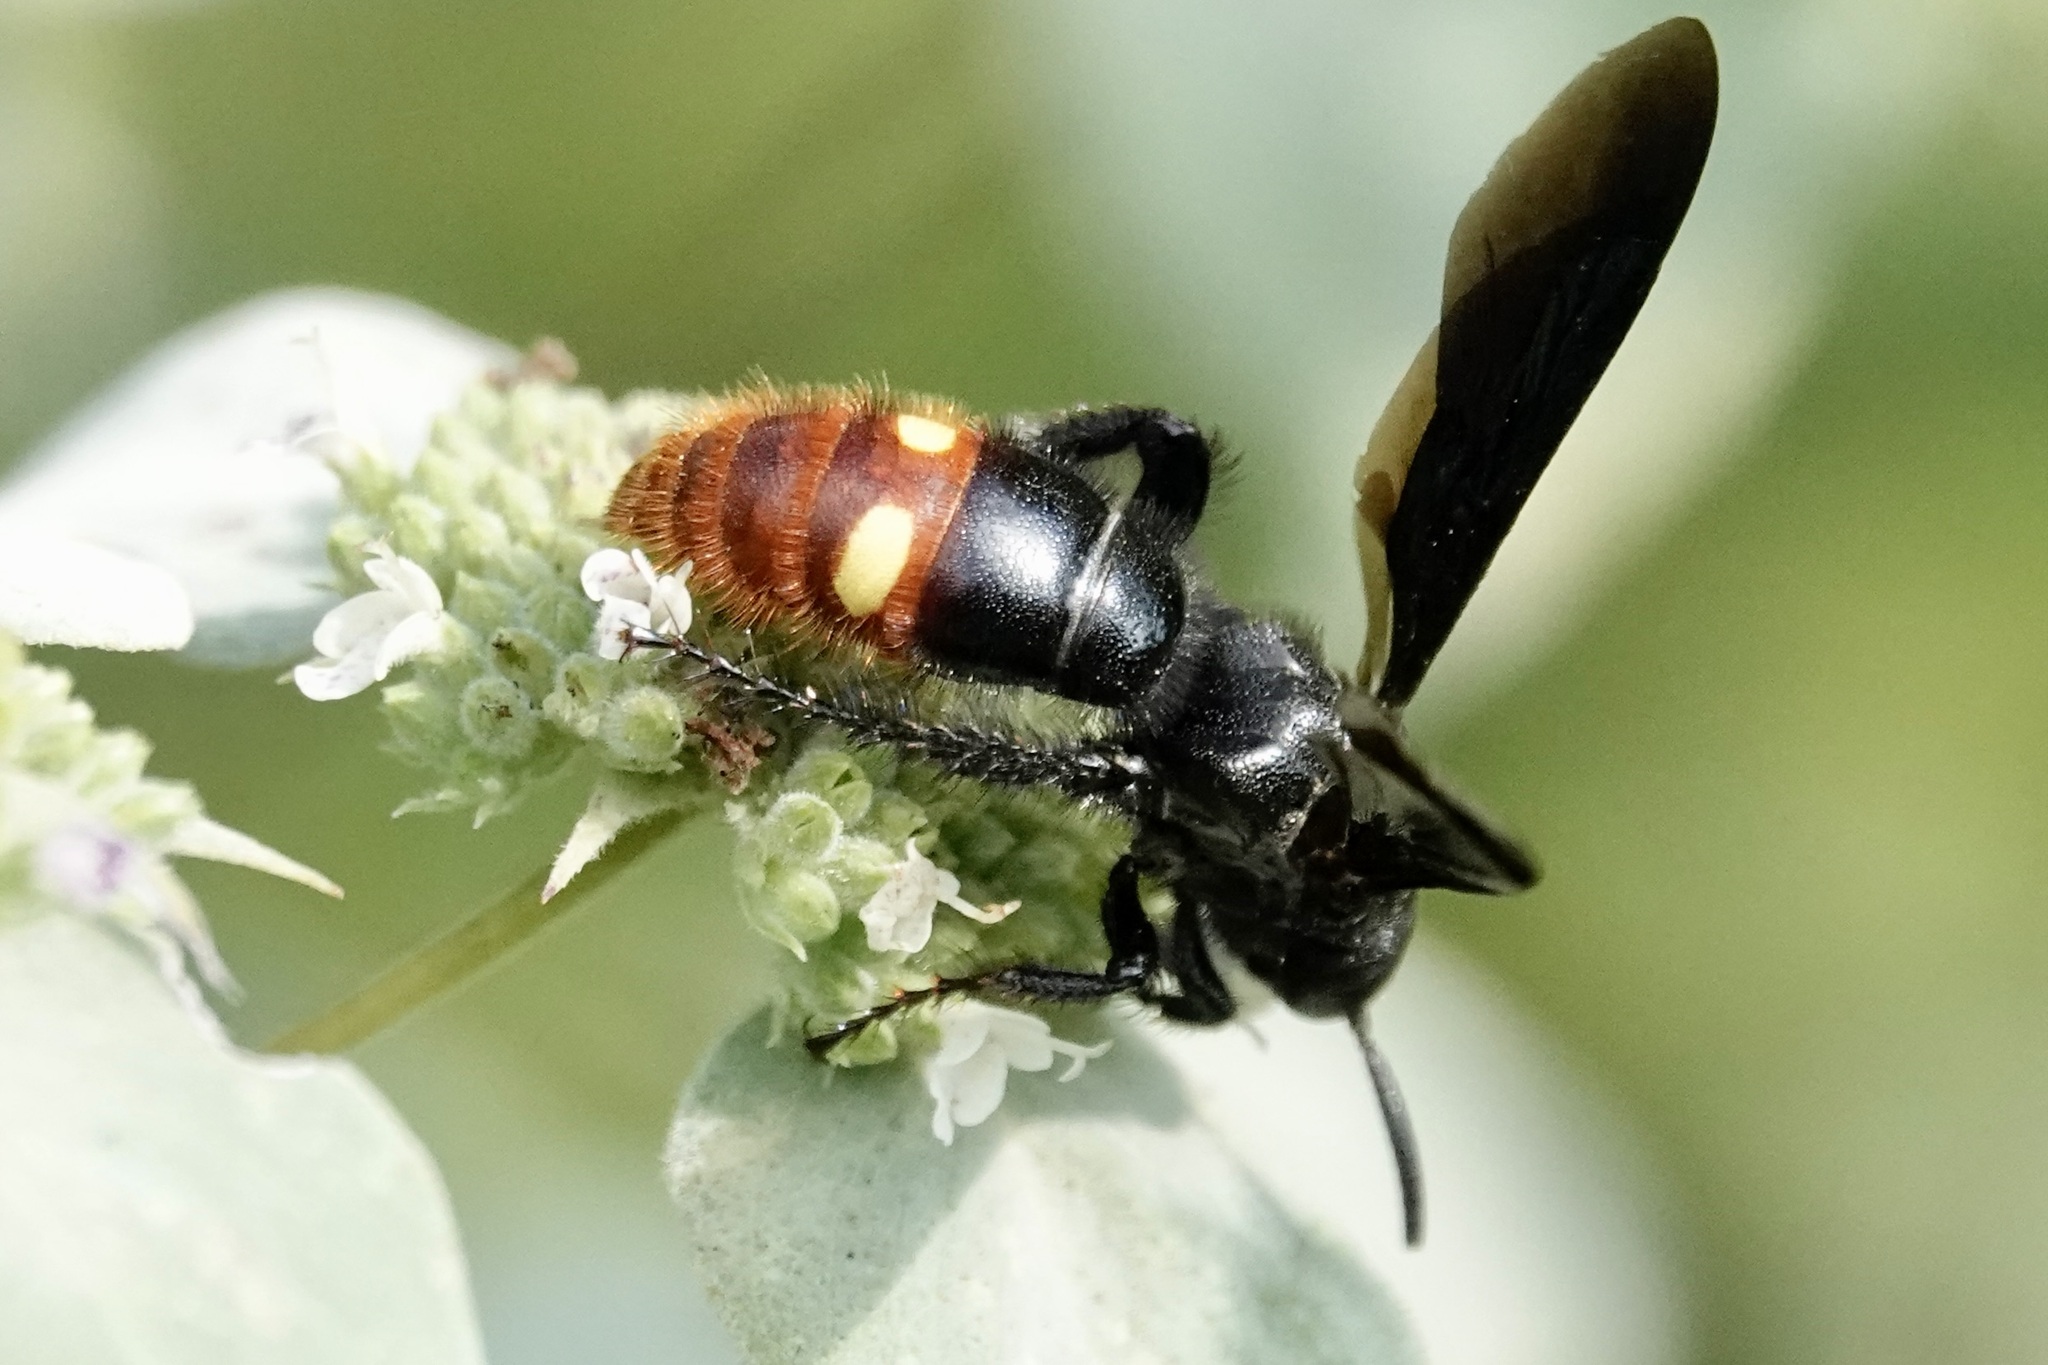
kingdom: Animalia
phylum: Arthropoda
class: Insecta
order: Hymenoptera
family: Scoliidae
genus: Scolia
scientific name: Scolia dubia
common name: Blue-winged scoliid wasp
